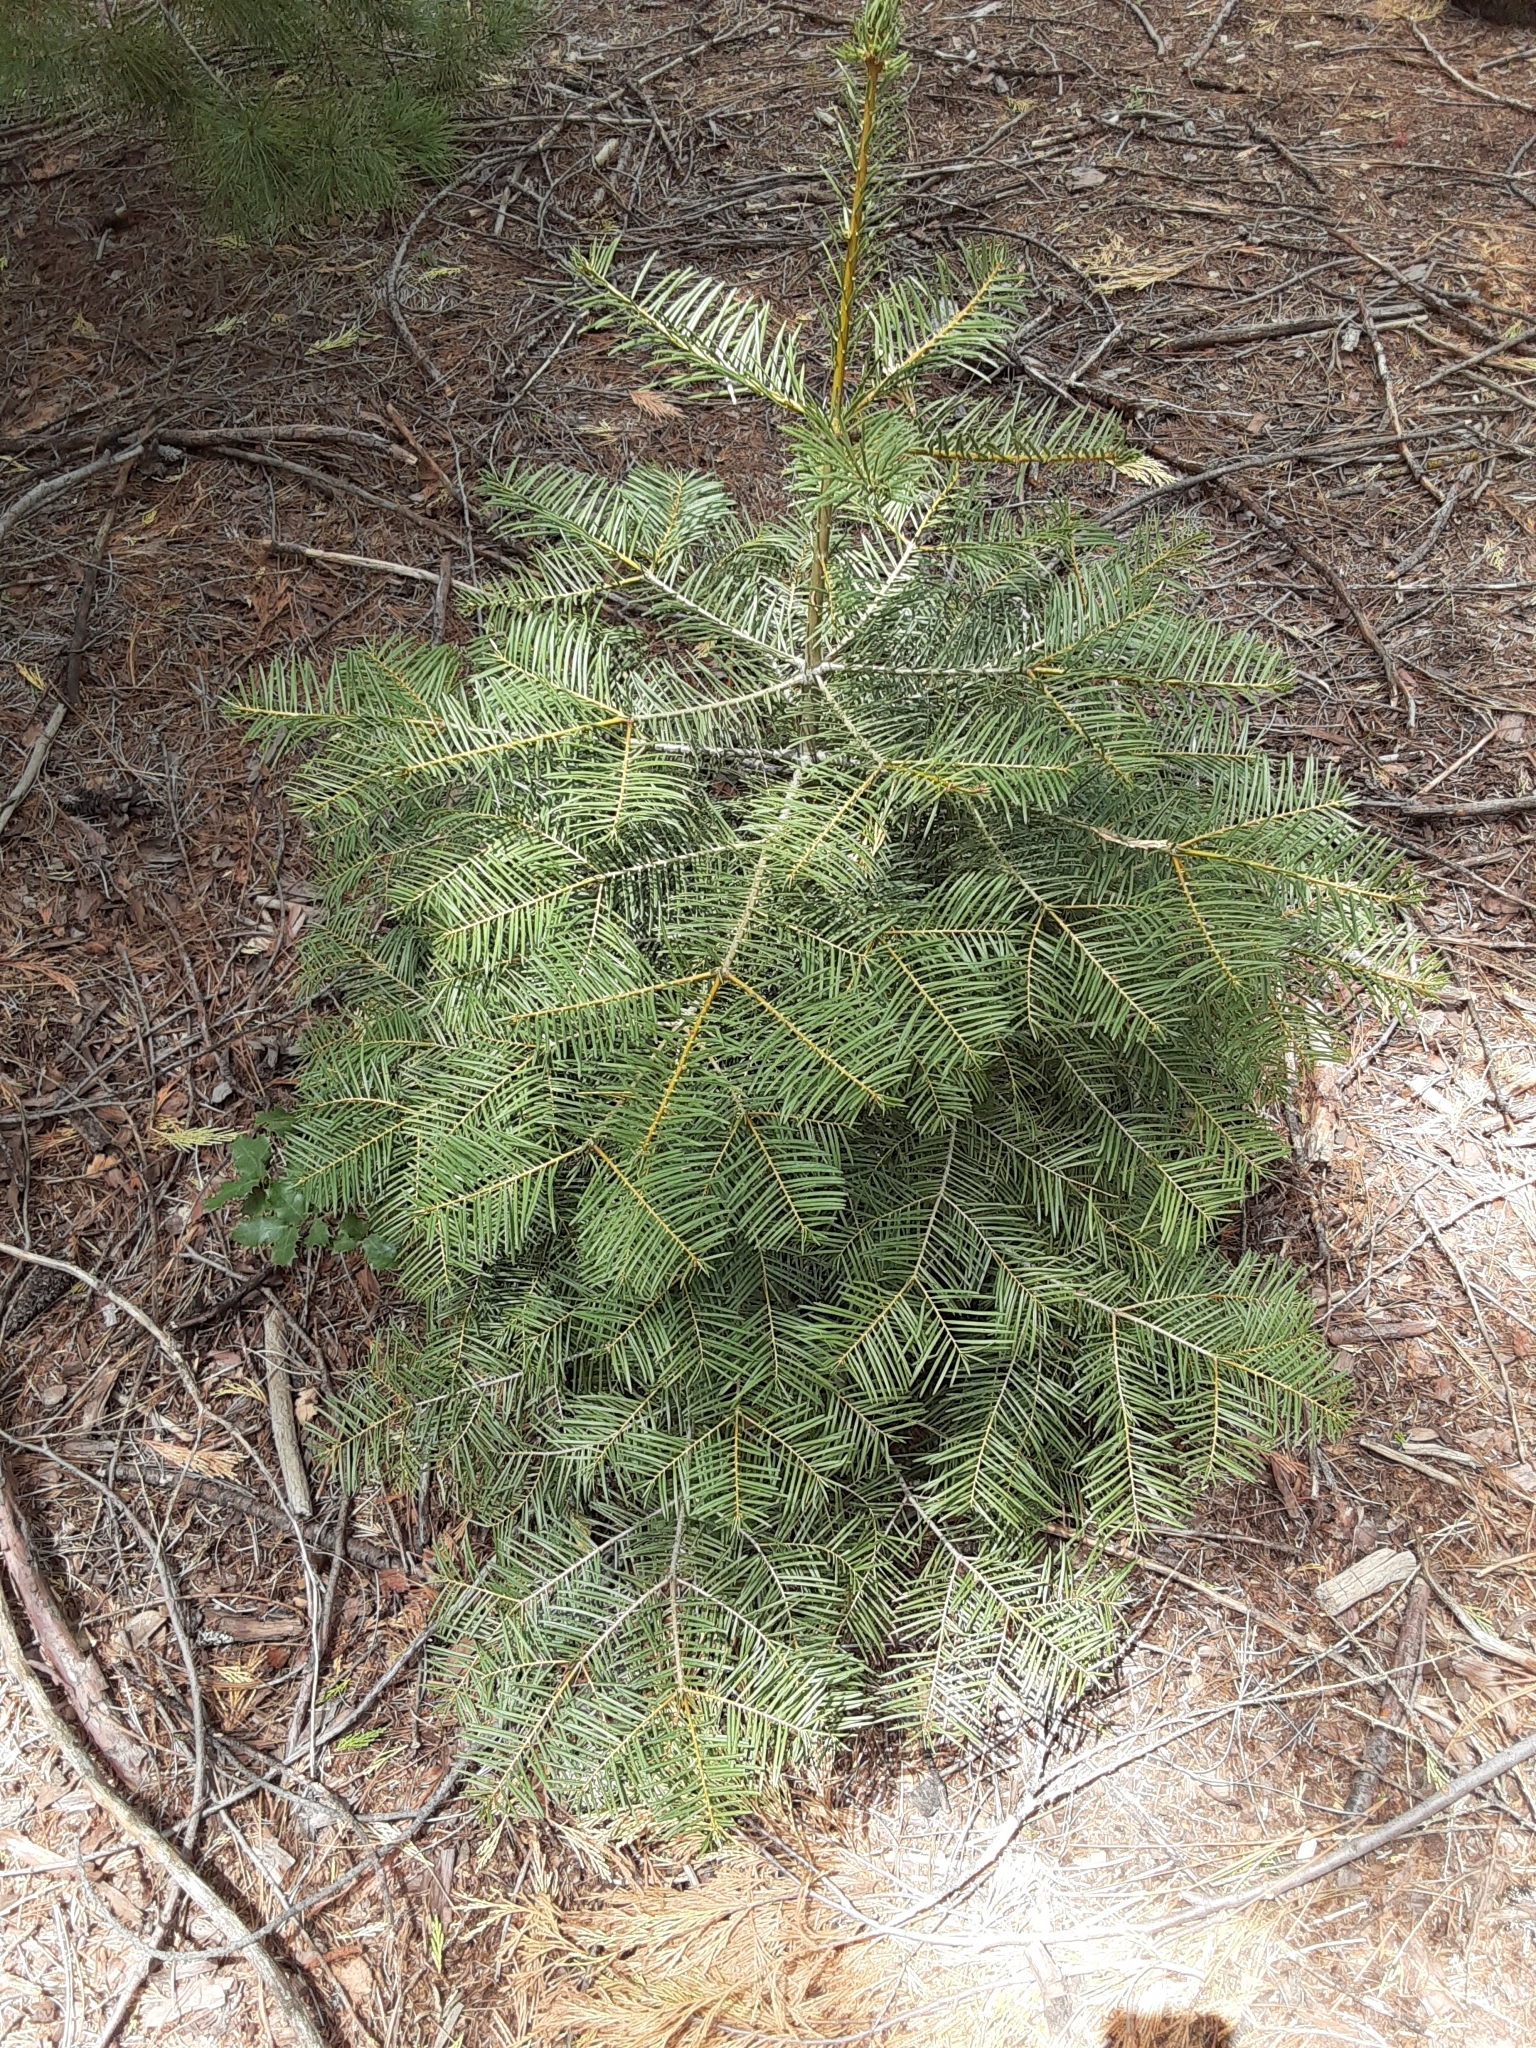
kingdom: Plantae
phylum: Tracheophyta
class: Pinopsida
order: Pinales
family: Pinaceae
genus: Abies
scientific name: Abies concolor
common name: Colorado fir
